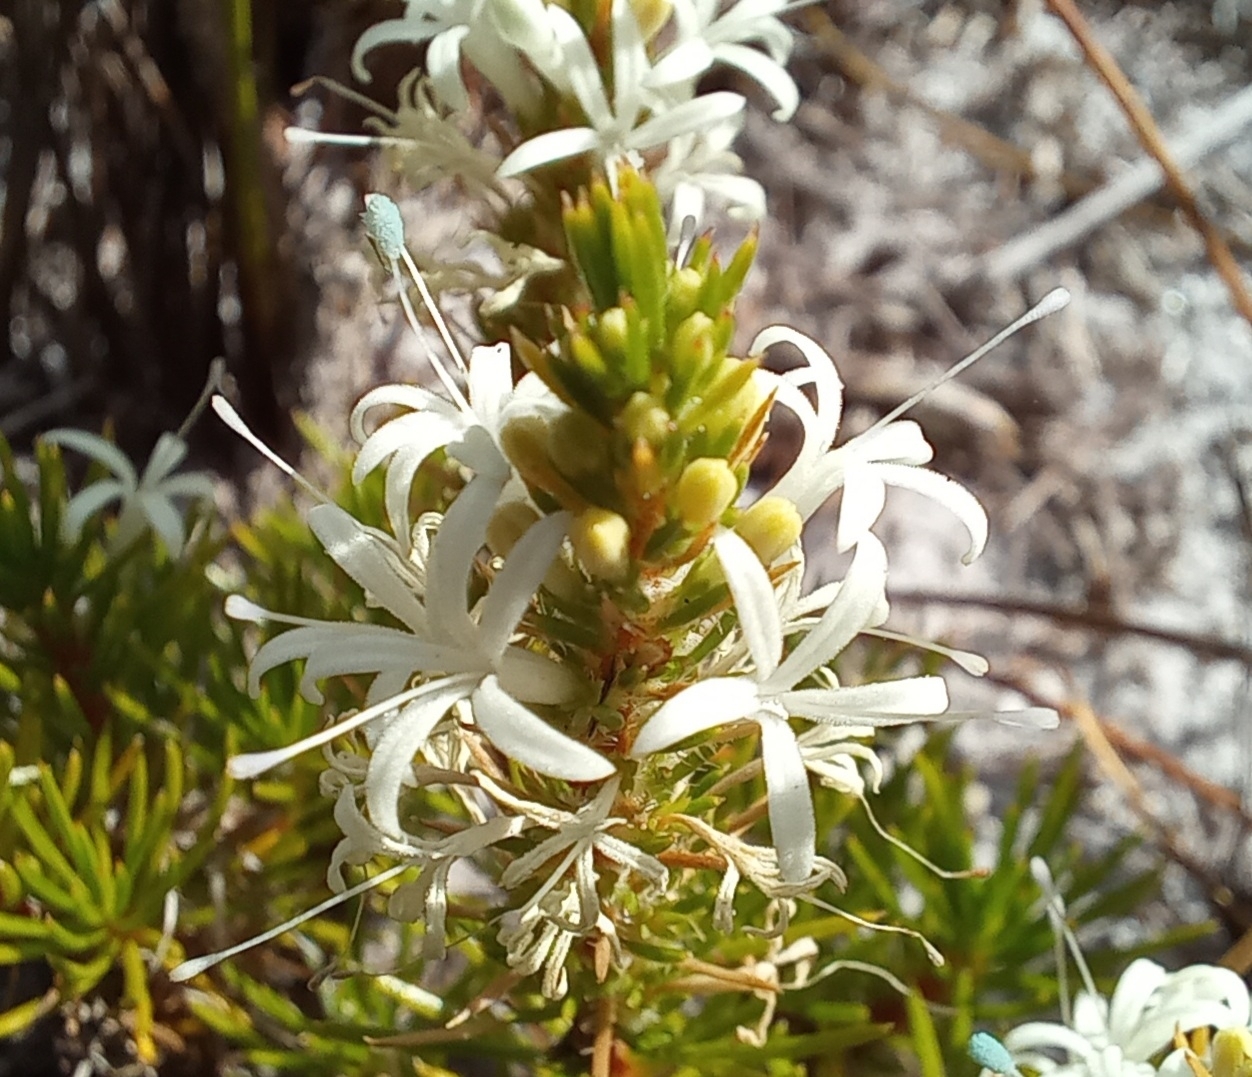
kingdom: Plantae
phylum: Tracheophyta
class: Magnoliopsida
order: Asterales
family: Campanulaceae
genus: Merciera
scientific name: Merciera leptoloba
